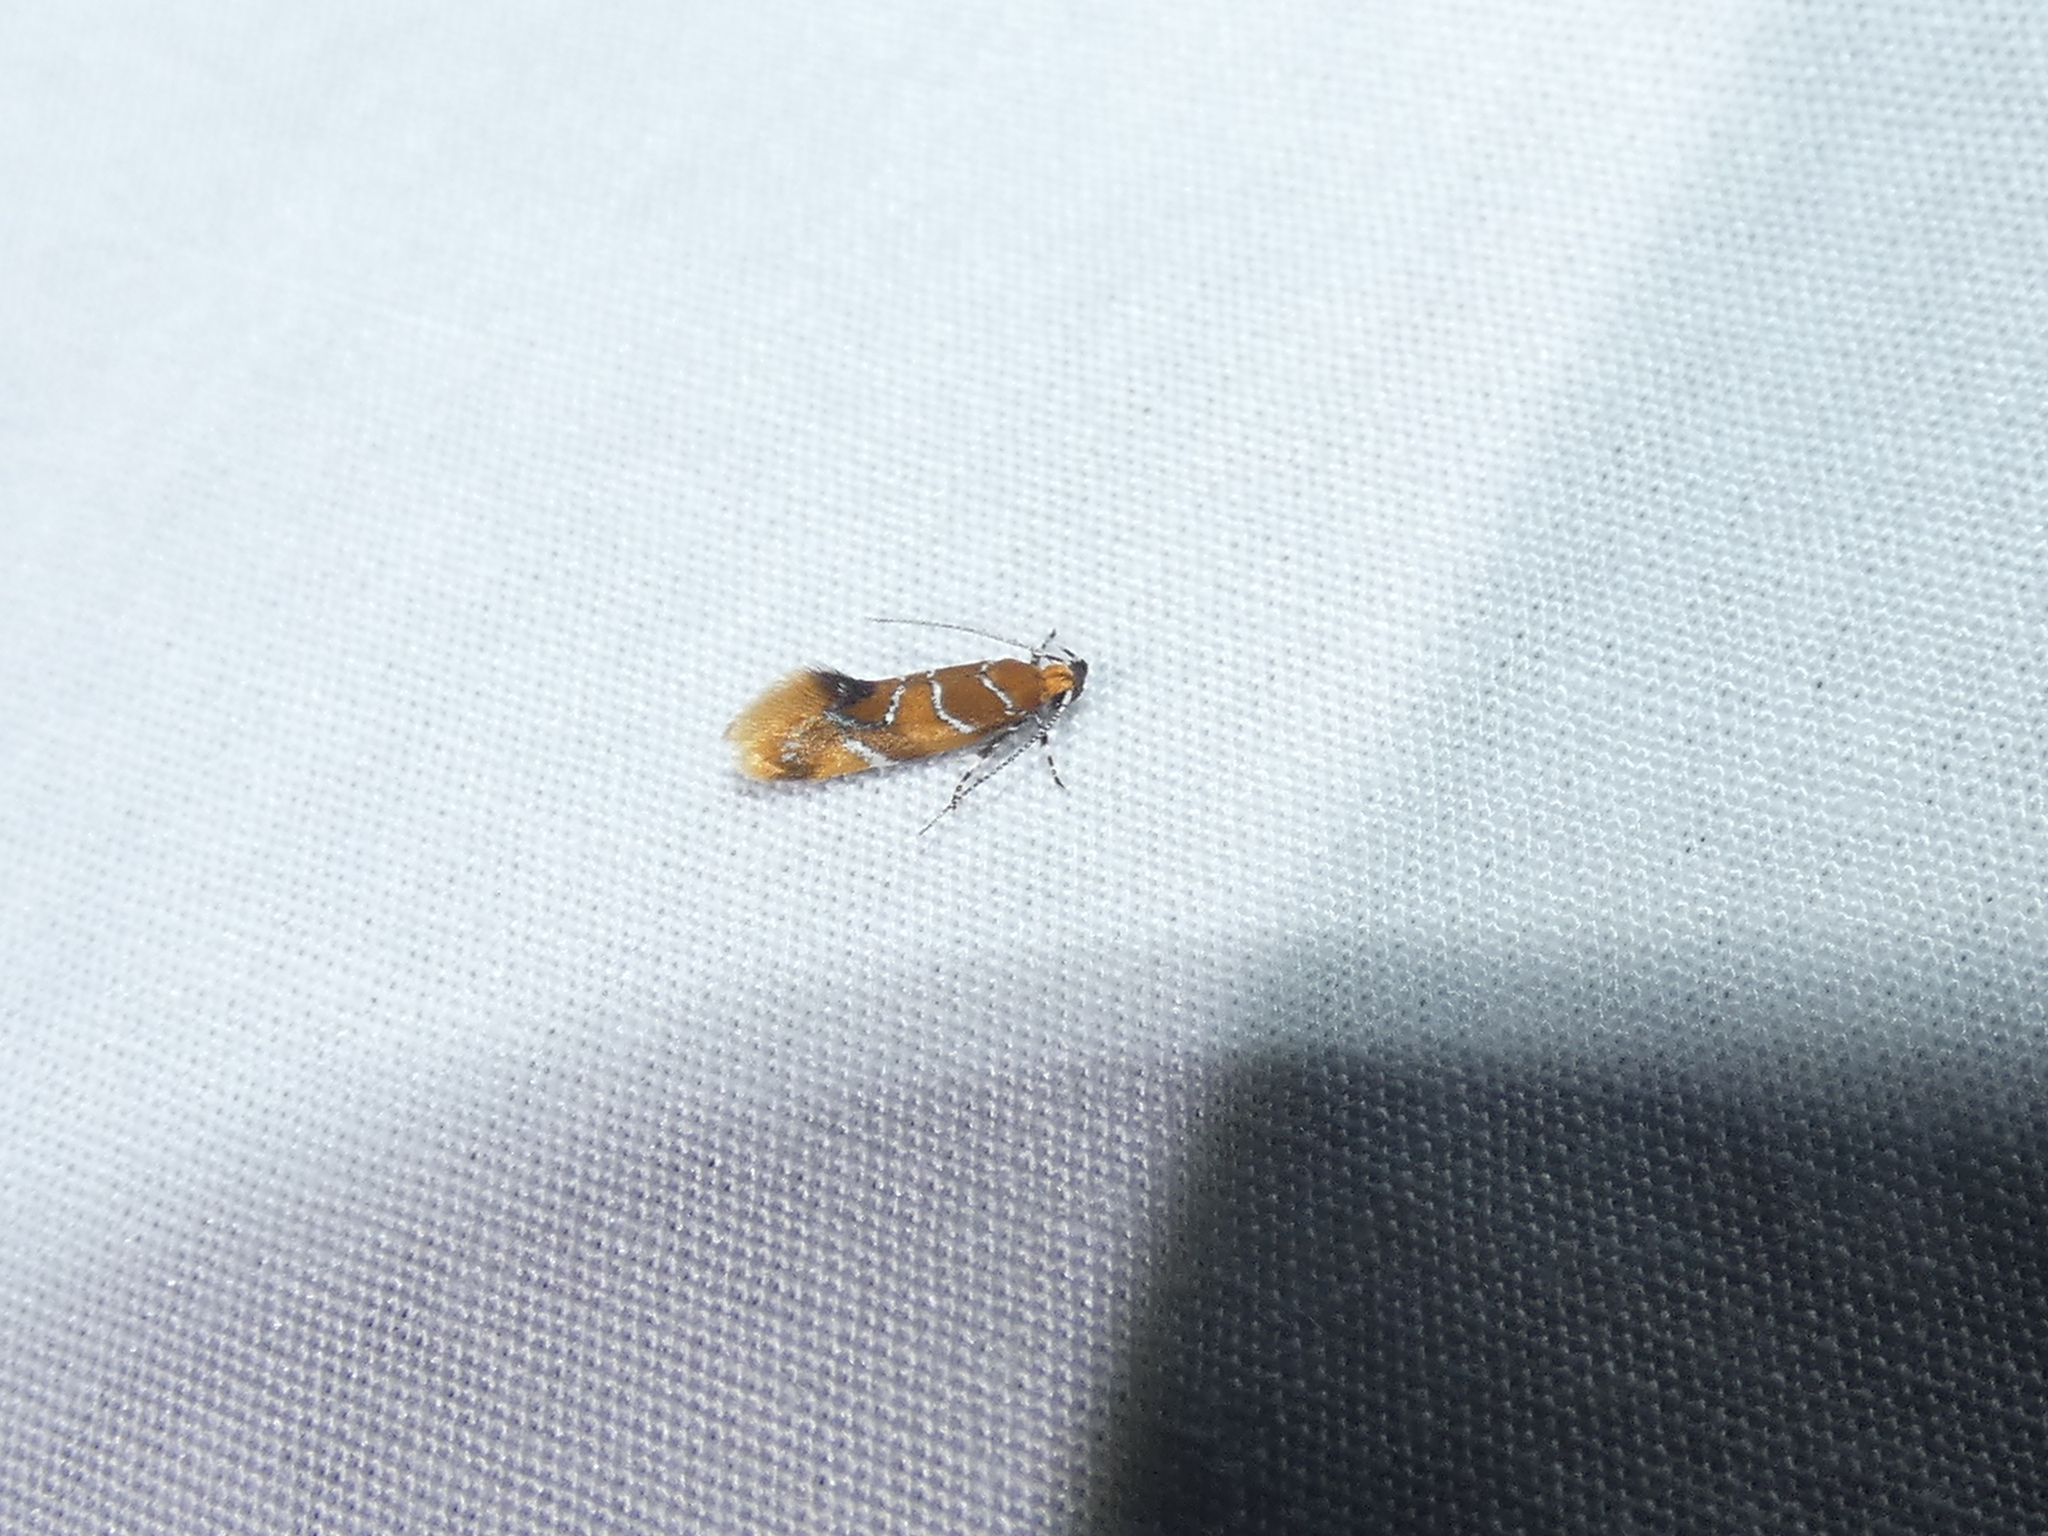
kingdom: Animalia
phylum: Arthropoda
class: Insecta
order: Lepidoptera
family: Oecophoridae
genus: Callima
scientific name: Callima argenticinctella
